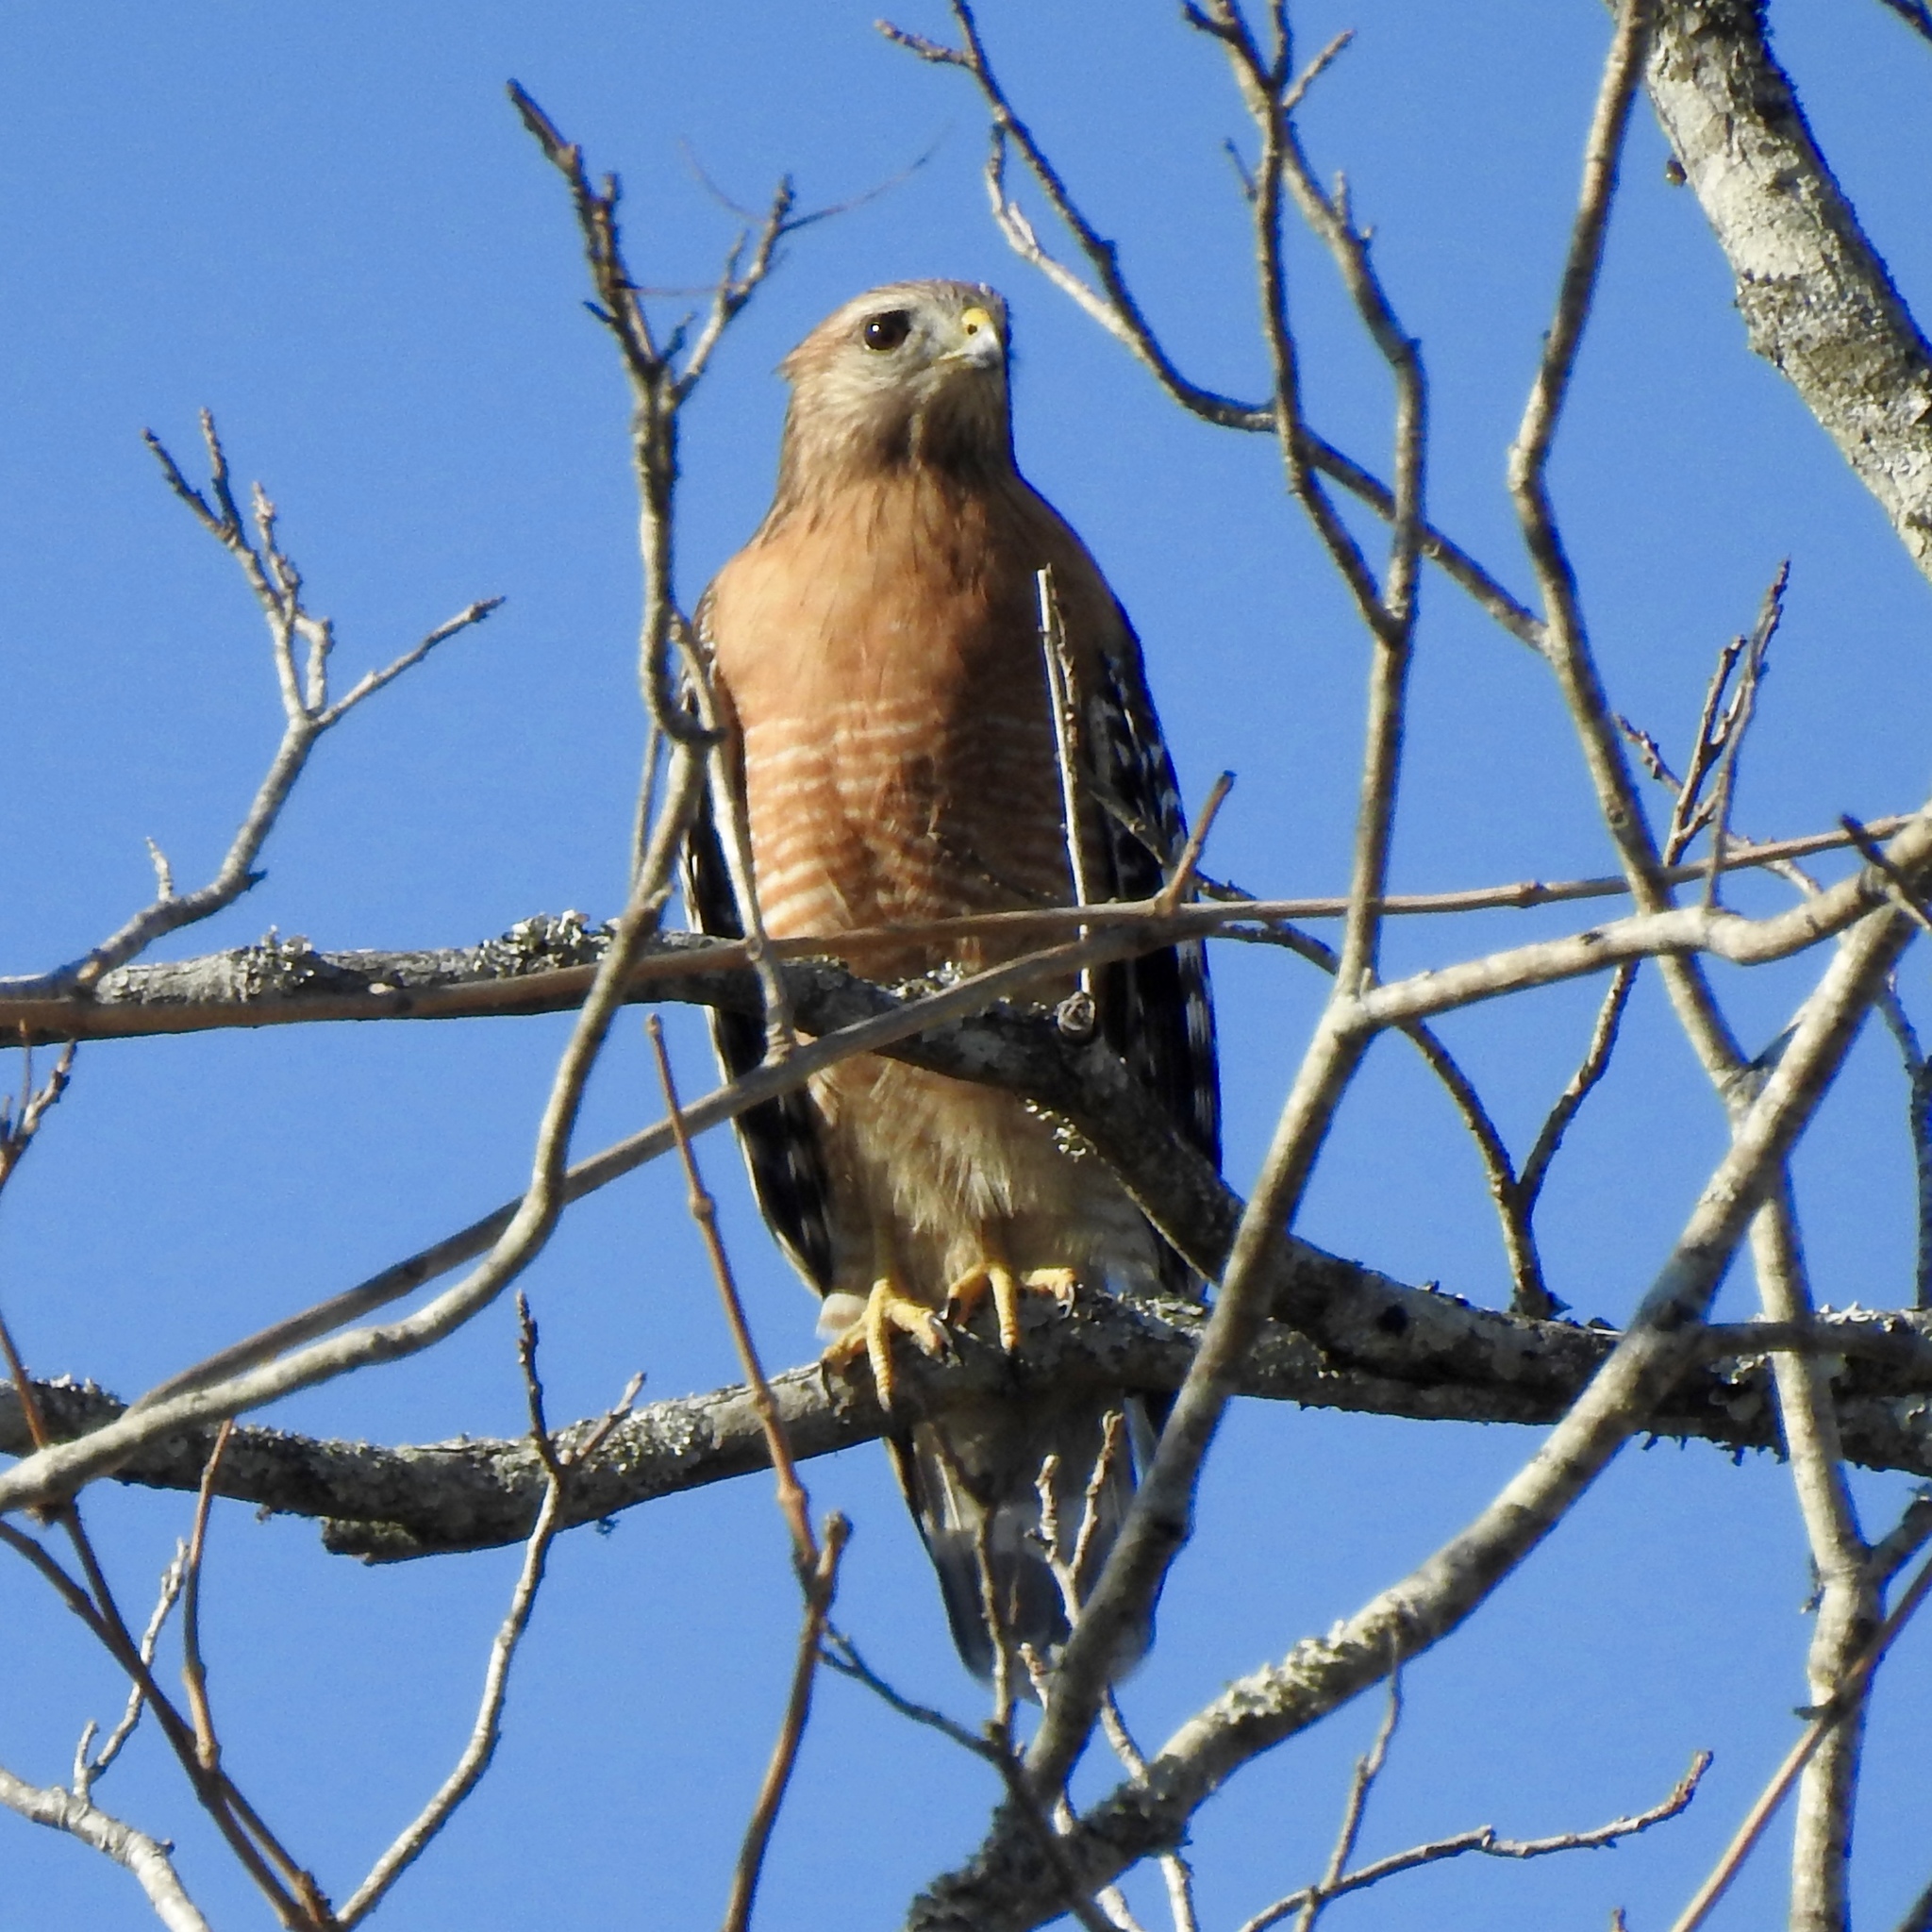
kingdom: Animalia
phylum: Chordata
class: Aves
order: Accipitriformes
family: Accipitridae
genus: Buteo
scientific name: Buteo lineatus
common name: Red-shouldered hawk
